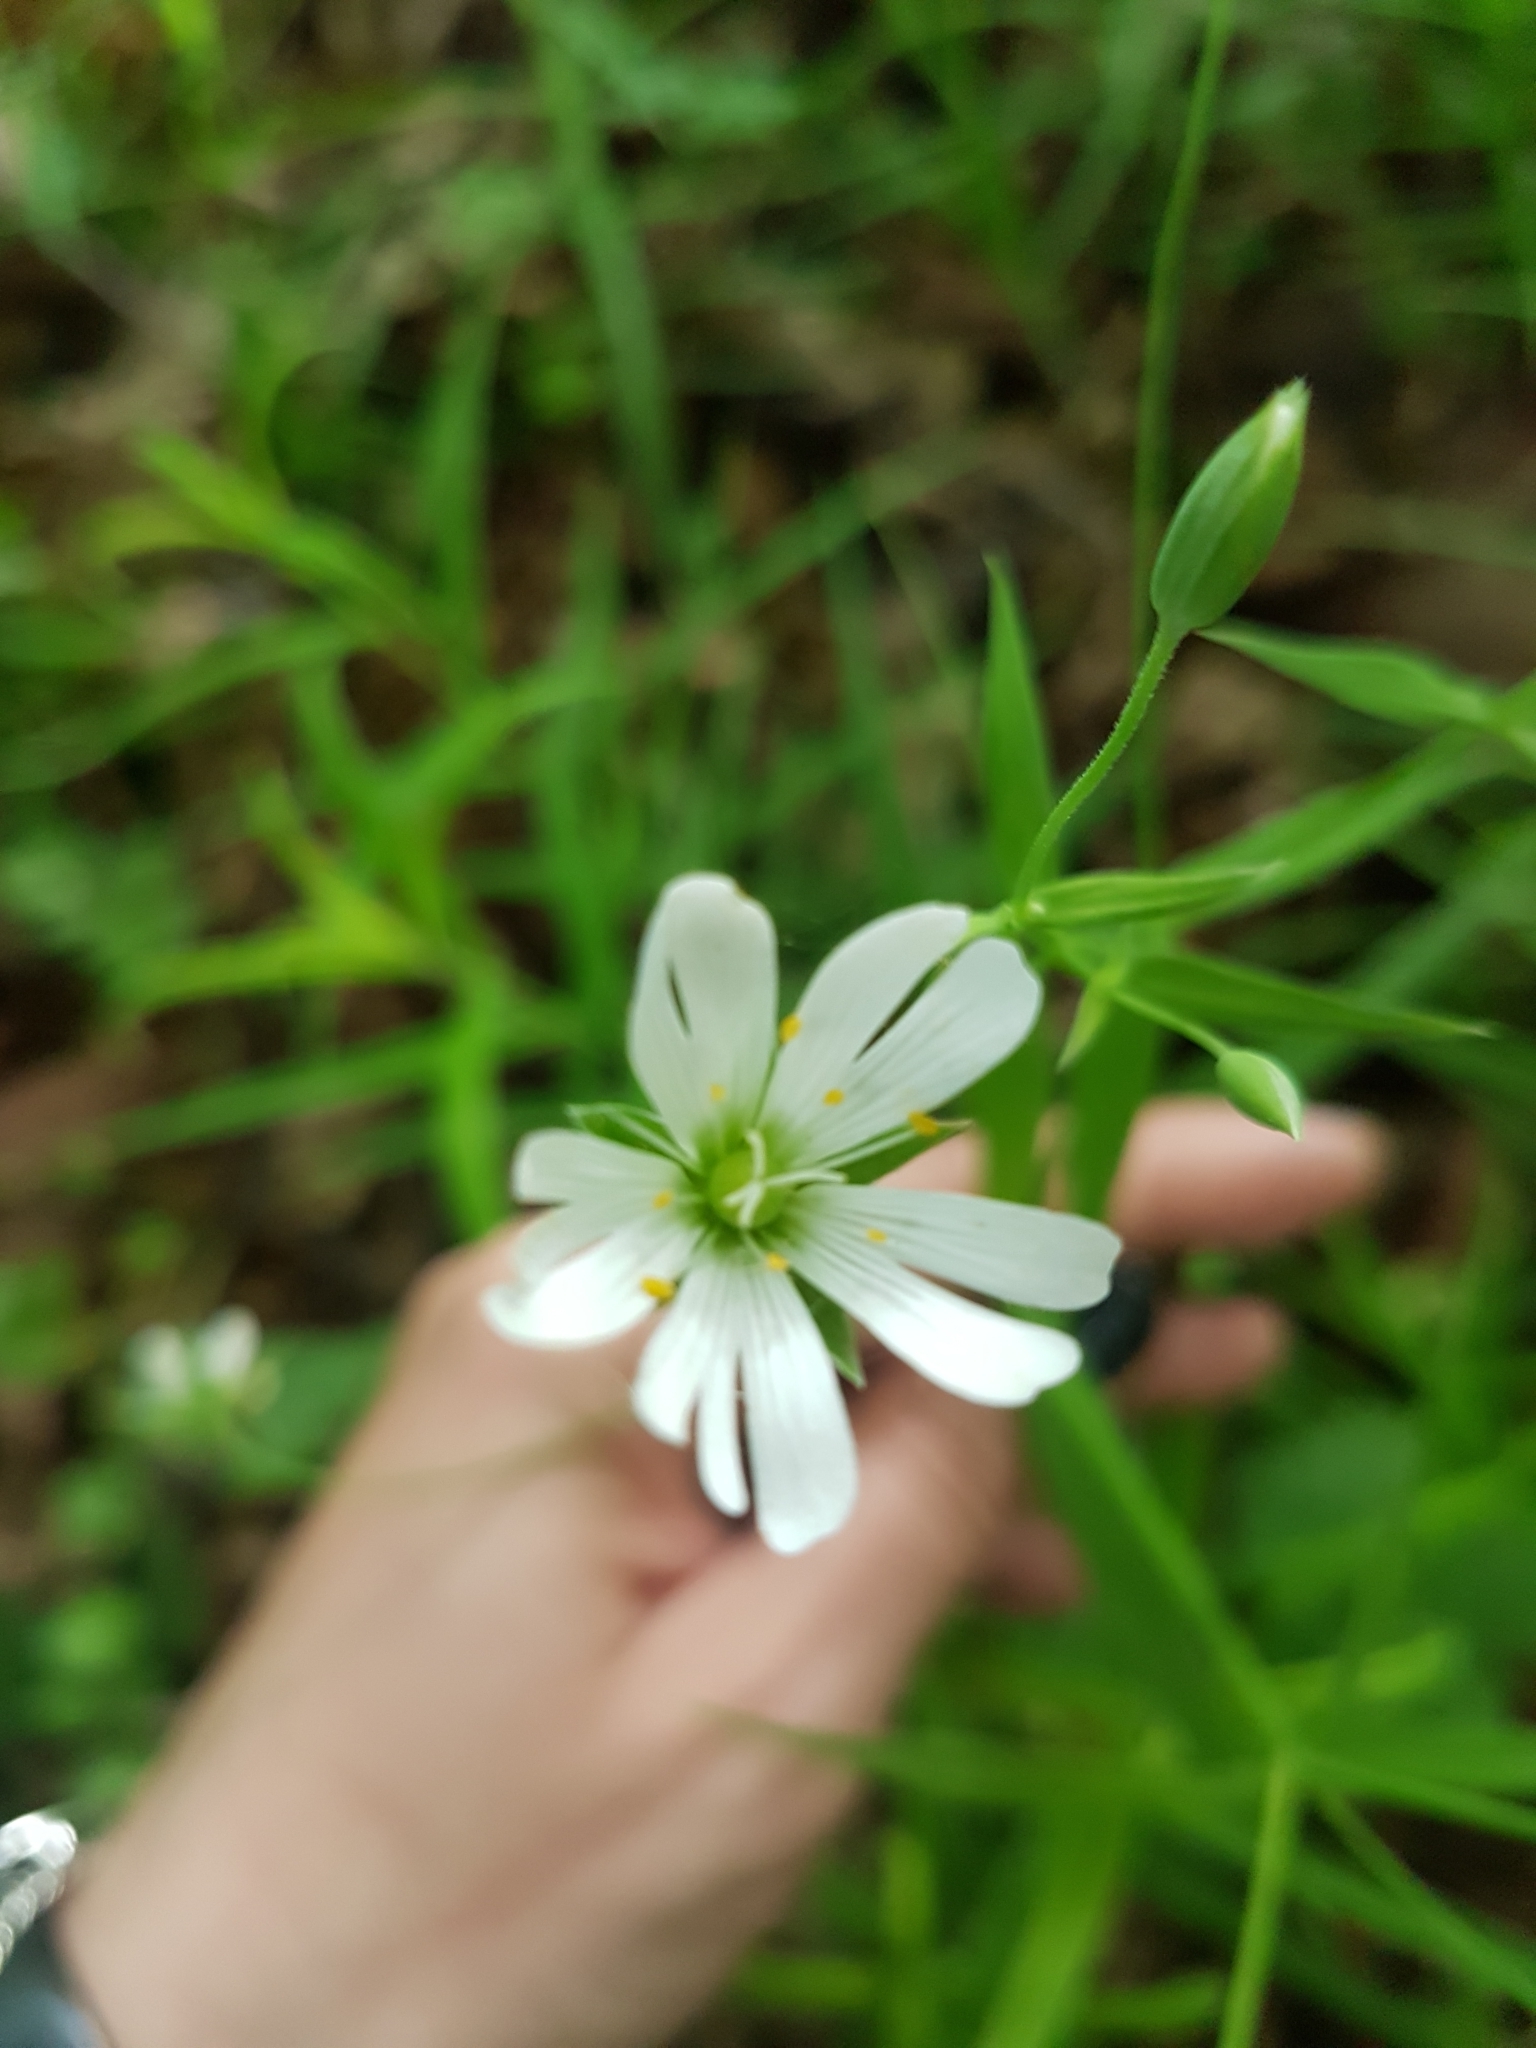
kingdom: Plantae
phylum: Tracheophyta
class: Magnoliopsida
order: Caryophyllales
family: Caryophyllaceae
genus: Rabelera
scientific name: Rabelera holostea
